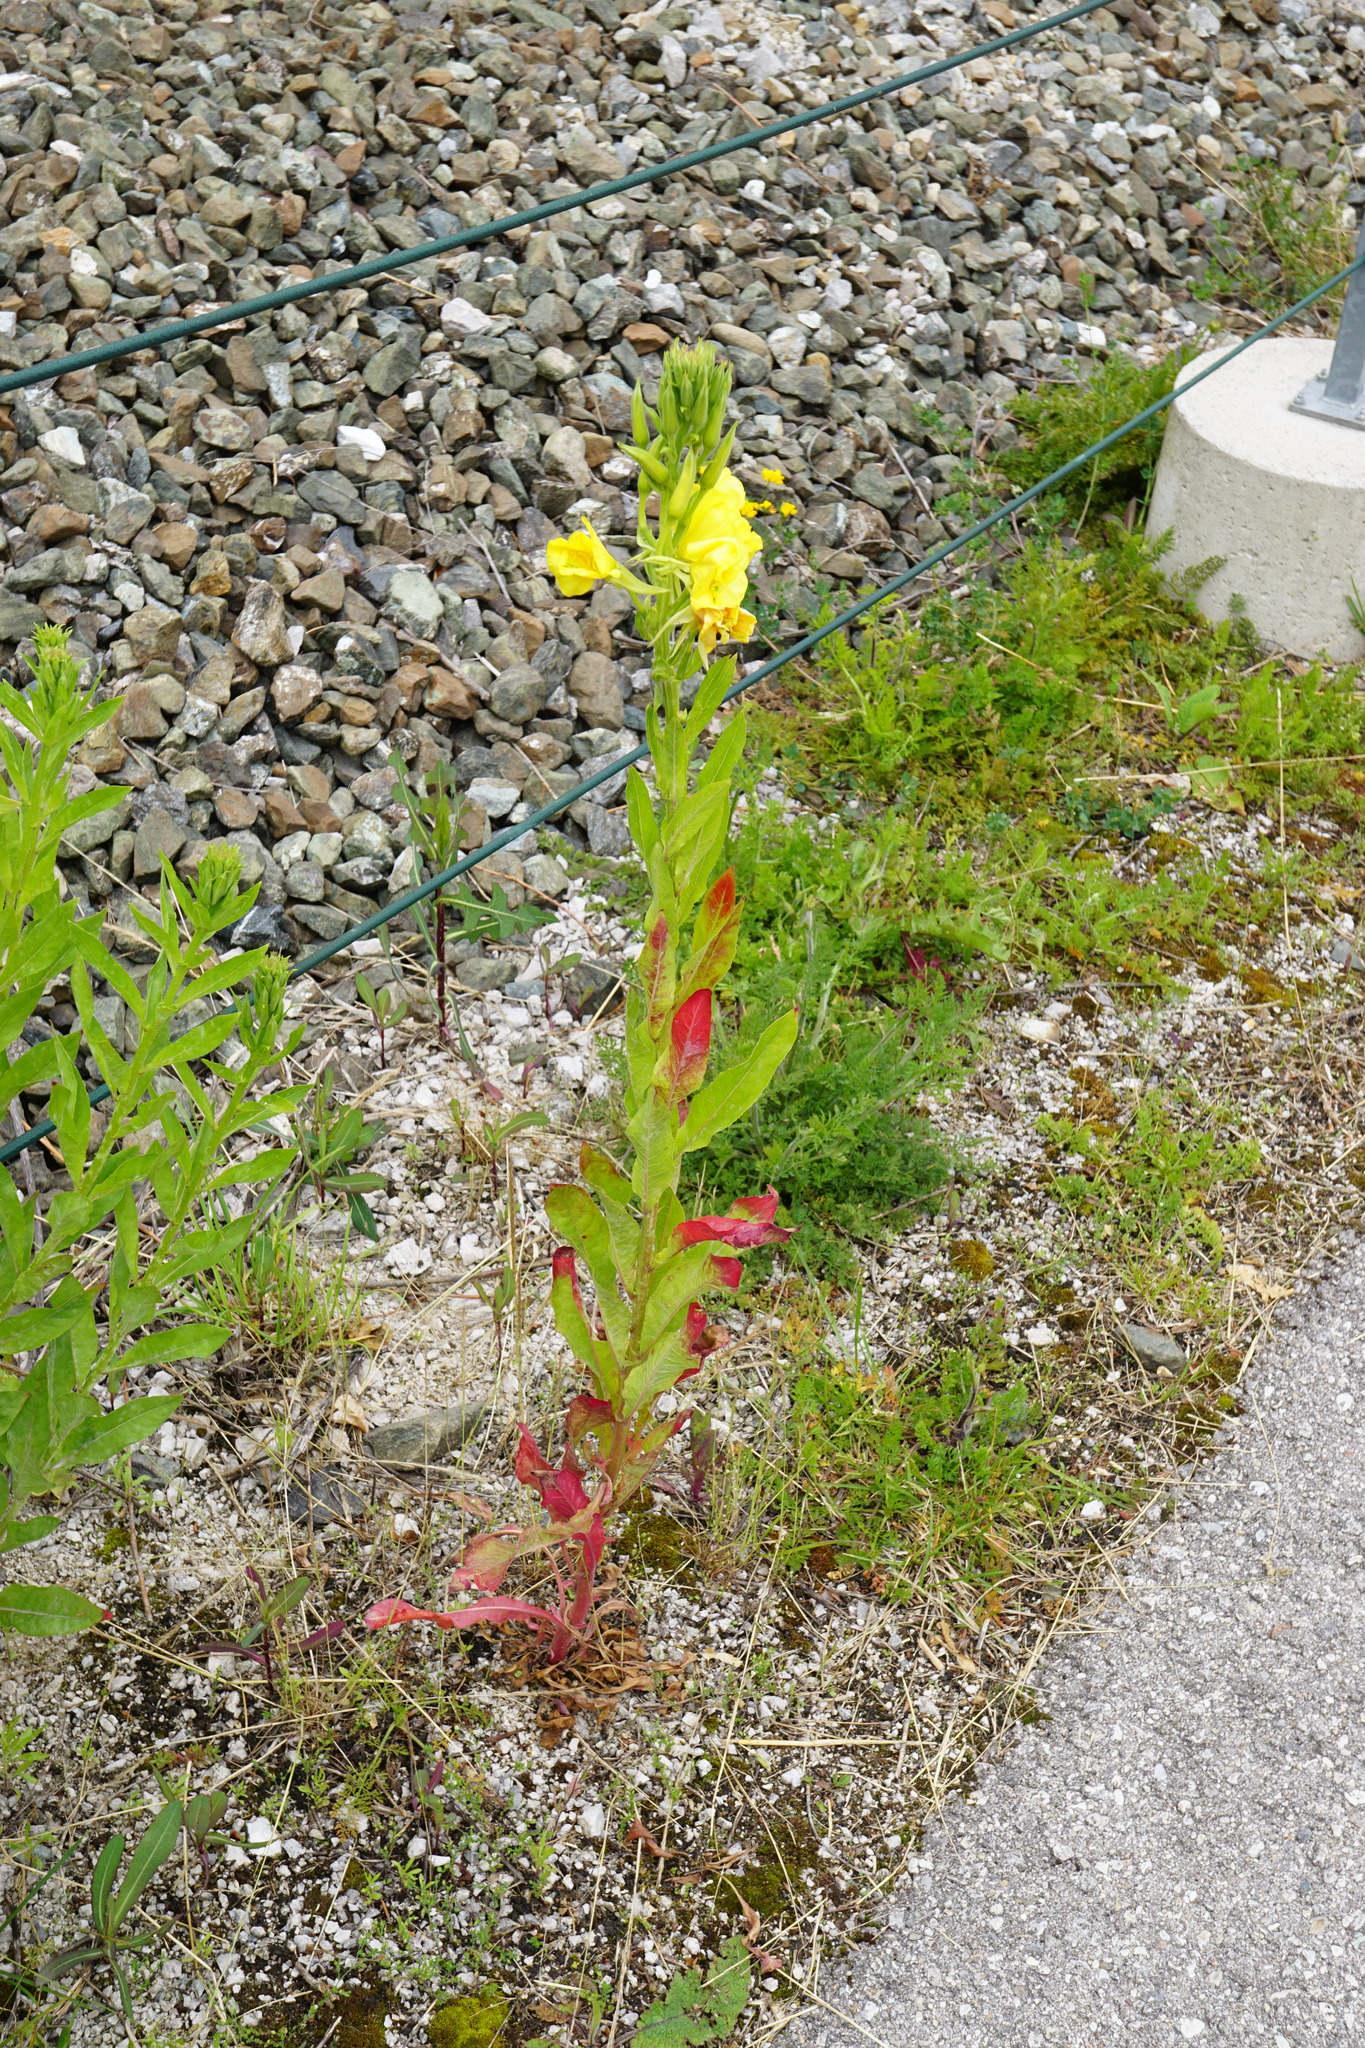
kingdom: Plantae
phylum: Tracheophyta
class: Magnoliopsida
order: Myrtales
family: Onagraceae
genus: Oenothera
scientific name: Oenothera biennis
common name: Common evening-primrose
